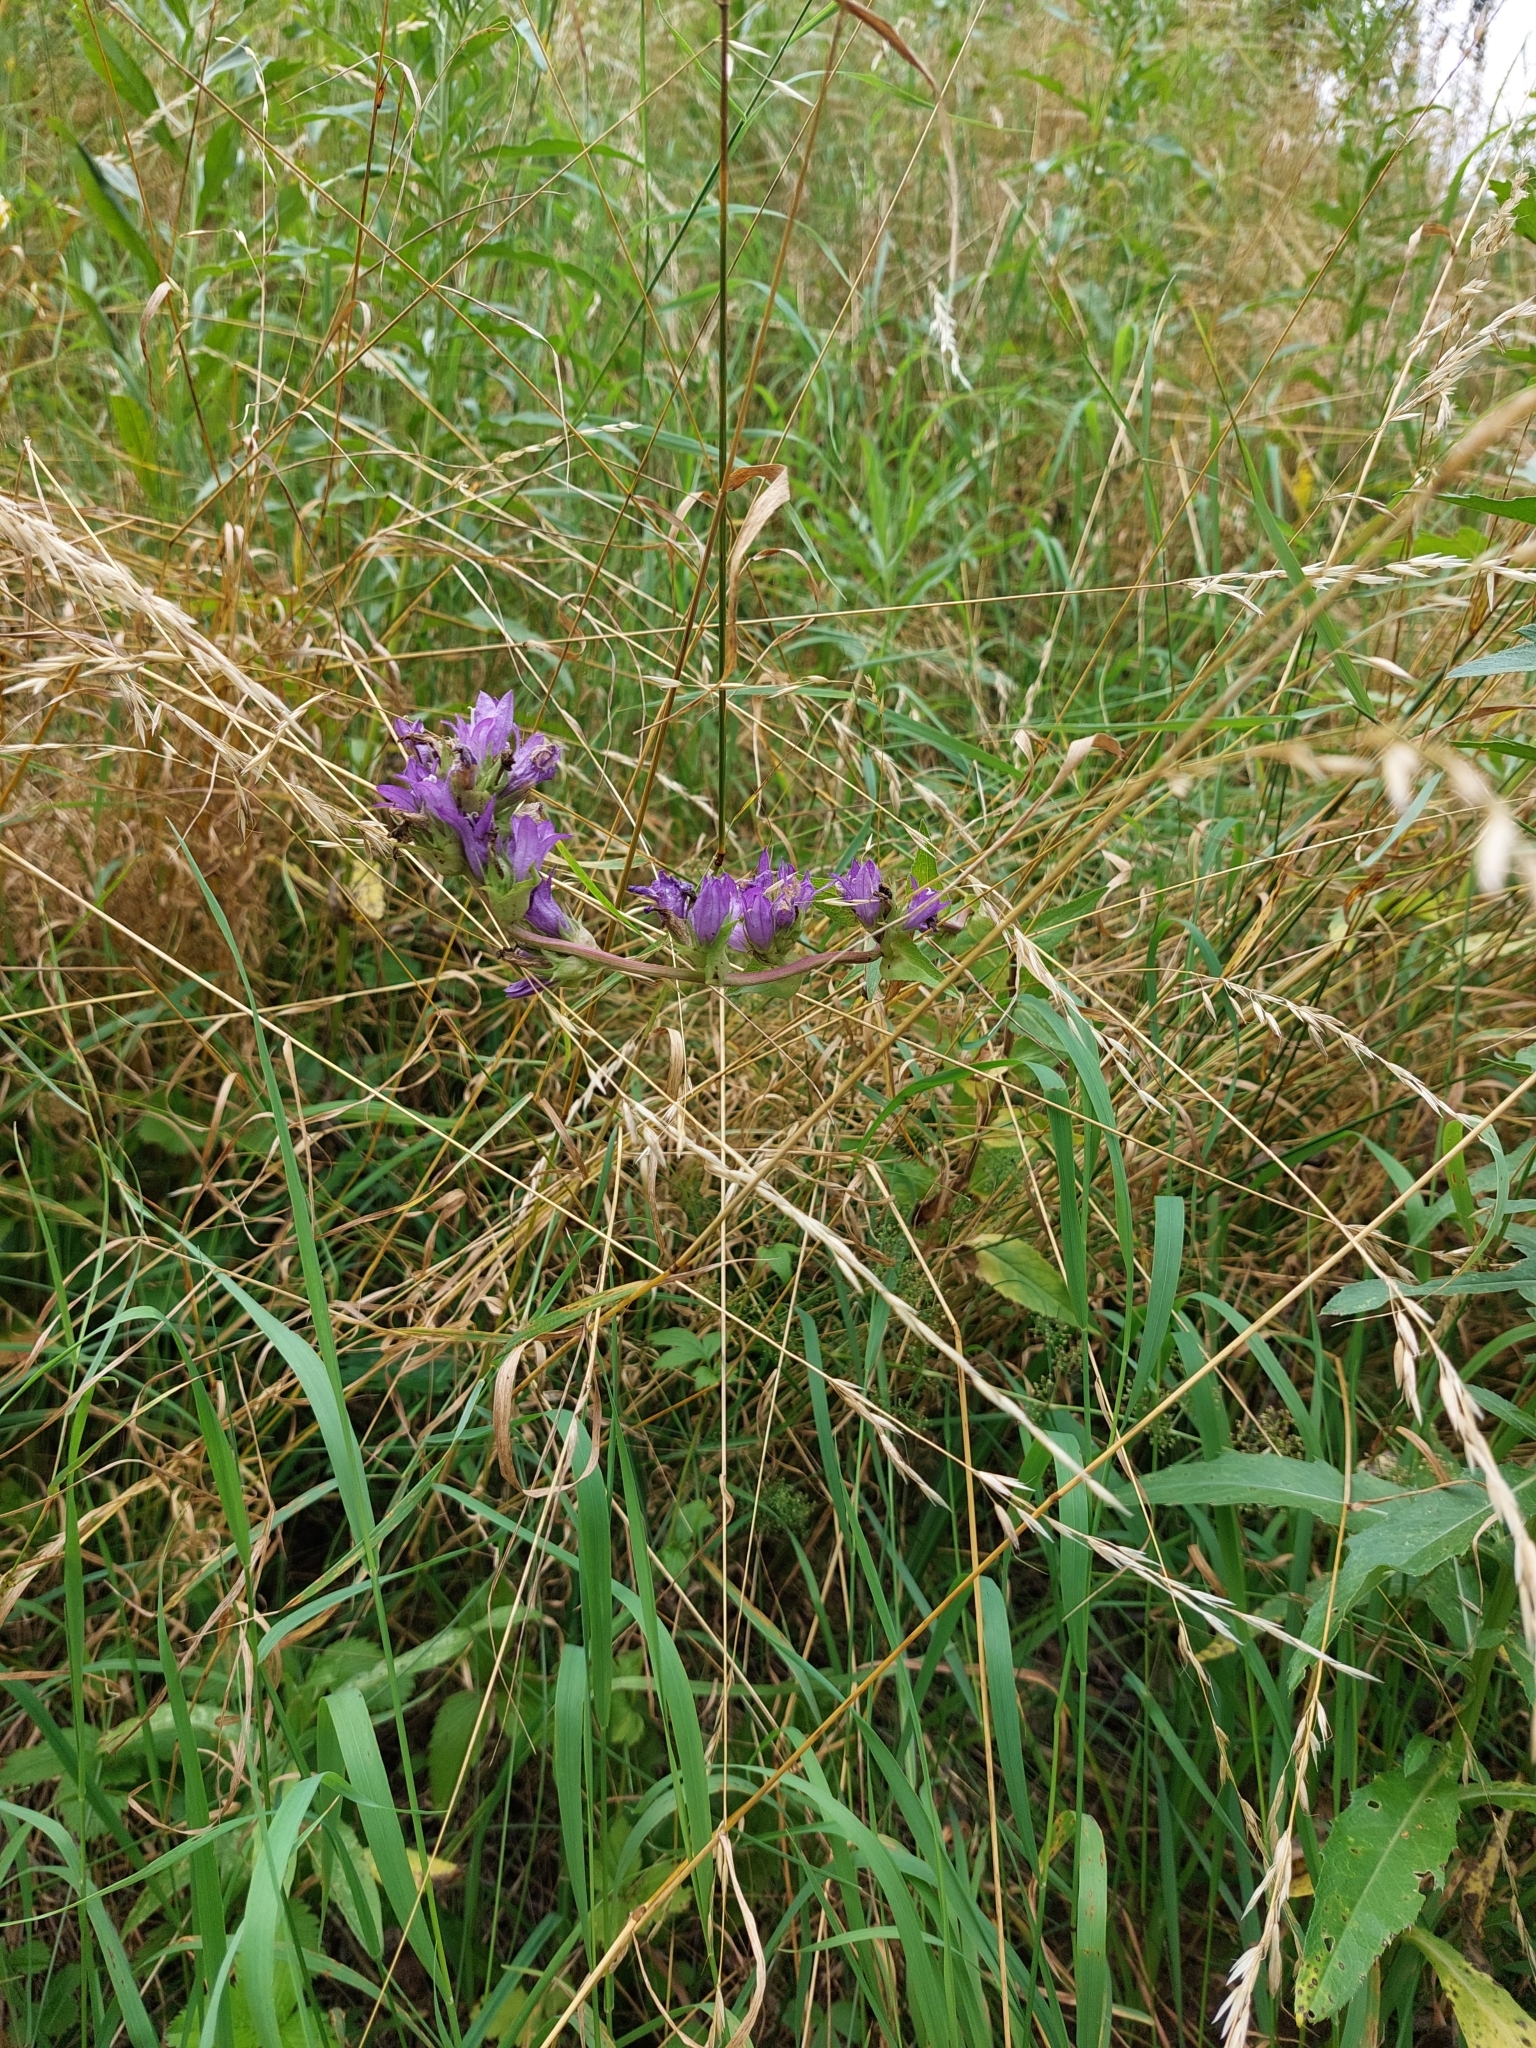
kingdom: Plantae
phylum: Tracheophyta
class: Magnoliopsida
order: Asterales
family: Campanulaceae
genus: Campanula
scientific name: Campanula glomerata
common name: Clustered bellflower
